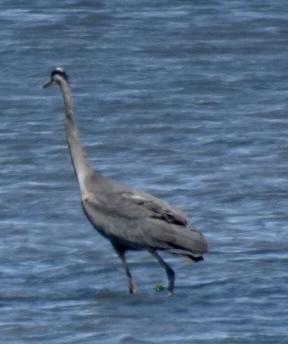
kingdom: Animalia
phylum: Chordata
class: Aves
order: Pelecaniformes
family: Ardeidae
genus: Ardea
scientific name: Ardea herodias
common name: Great blue heron
